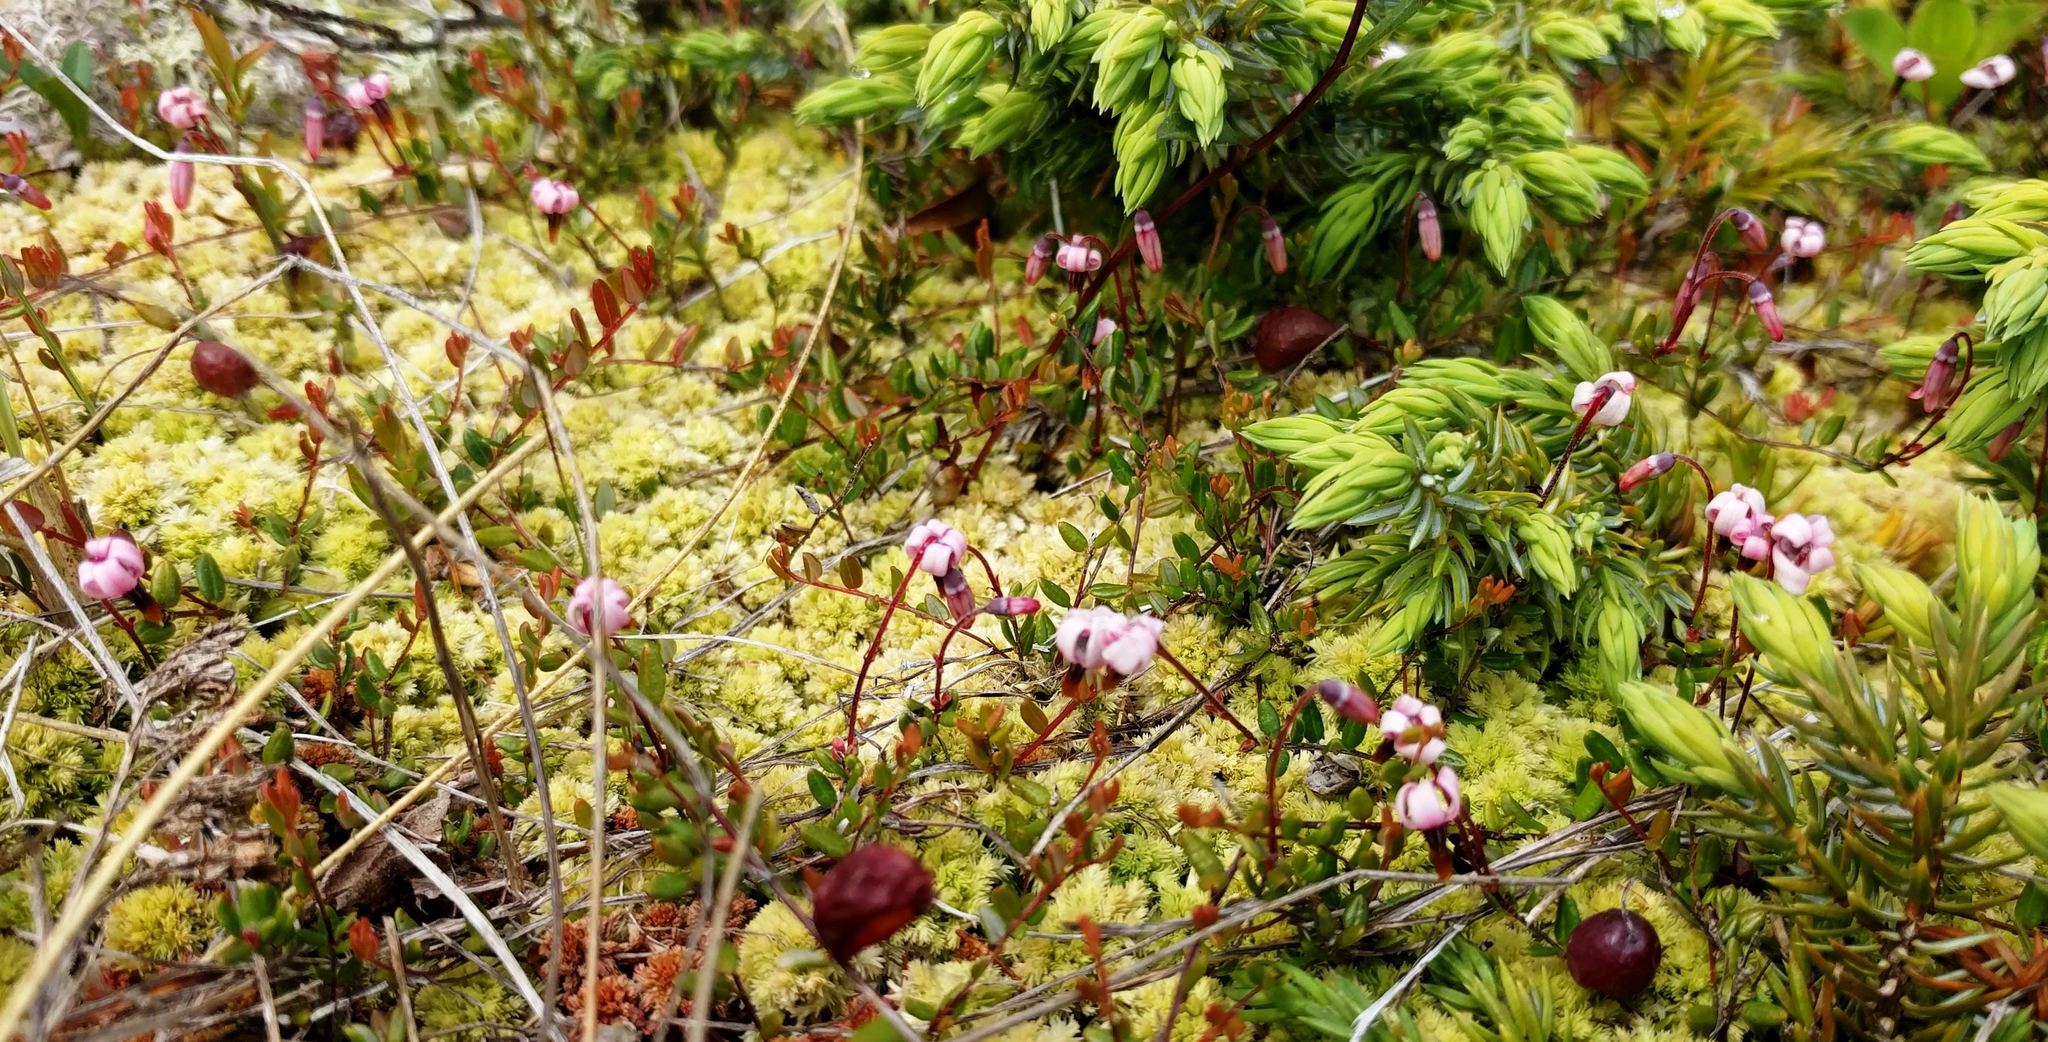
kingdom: Plantae
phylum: Tracheophyta
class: Magnoliopsida
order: Ericales
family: Ericaceae
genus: Vaccinium
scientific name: Vaccinium oxycoccos
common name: Cranberry
